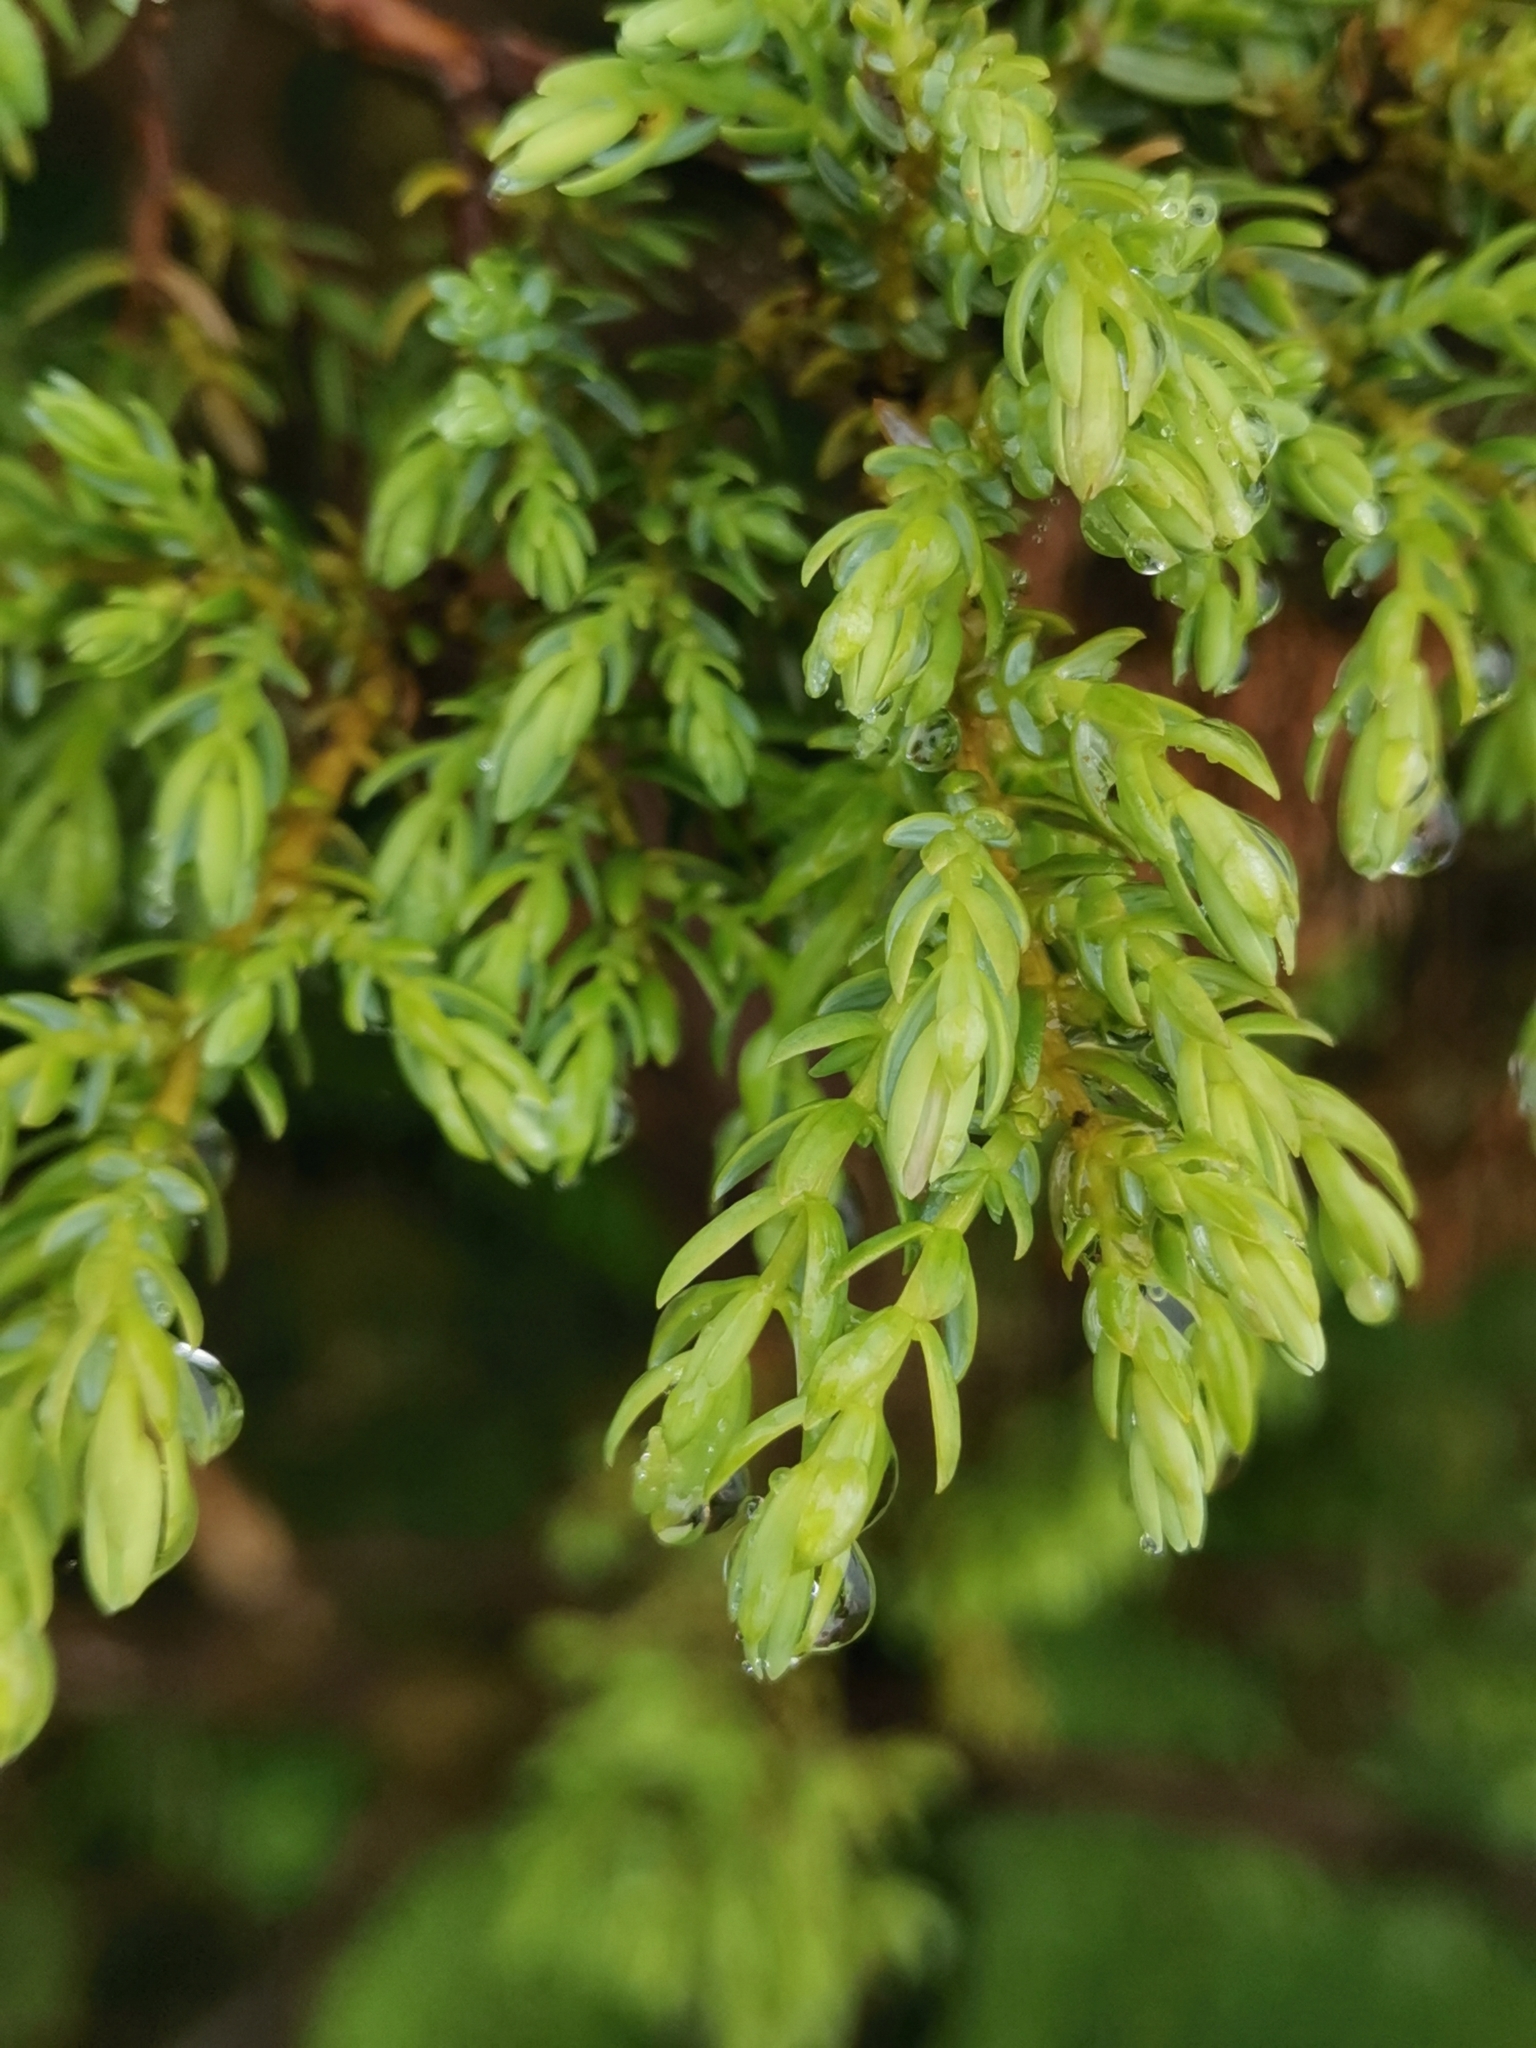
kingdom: Plantae
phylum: Tracheophyta
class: Pinopsida
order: Pinales
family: Cupressaceae
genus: Juniperus
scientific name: Juniperus brevifolia
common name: Azores juniper
